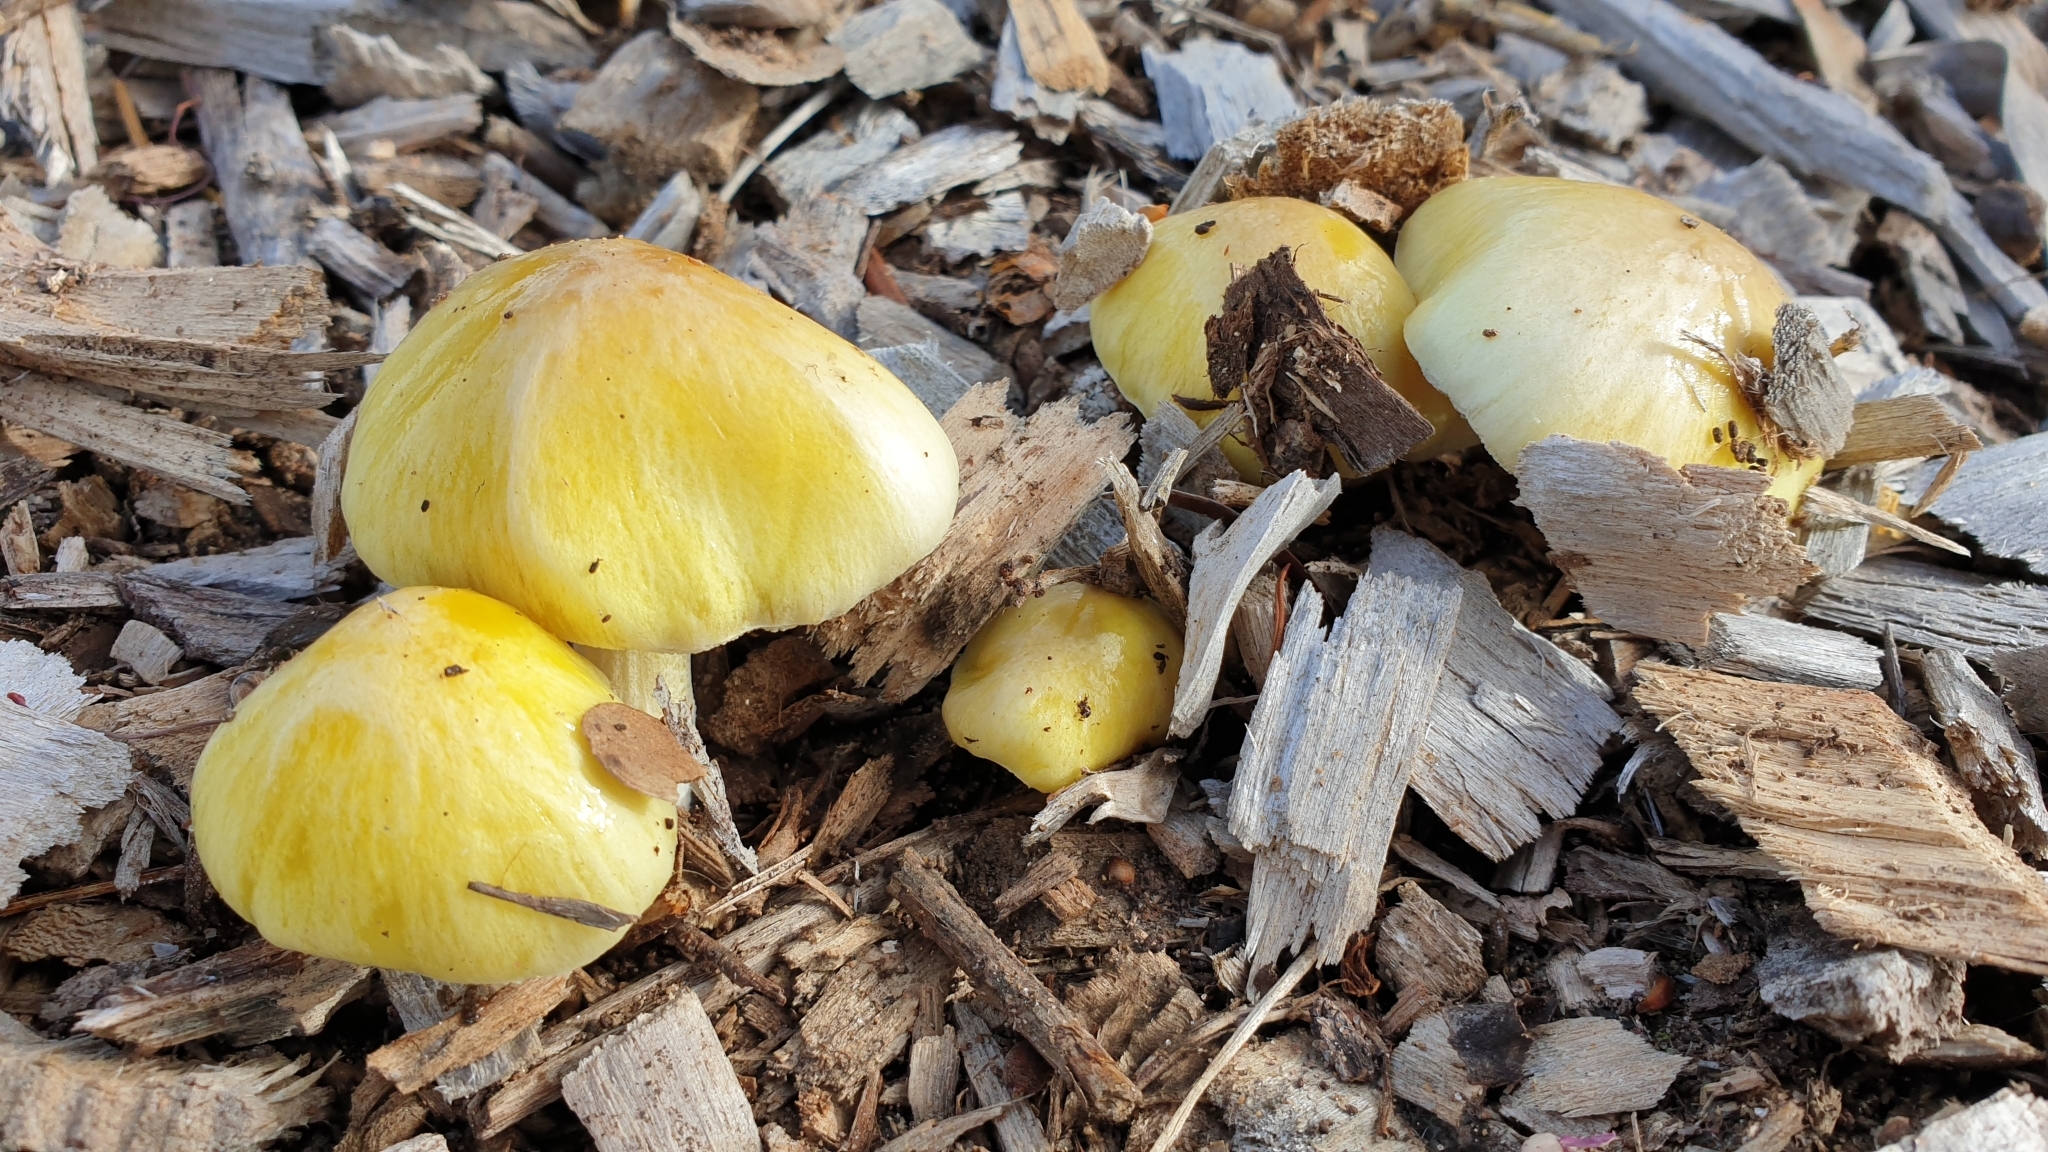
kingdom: Fungi
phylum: Basidiomycota
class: Agaricomycetes
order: Agaricales
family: Bolbitiaceae
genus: Bolbitius
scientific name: Bolbitius titubans
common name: Yellow fieldcap
